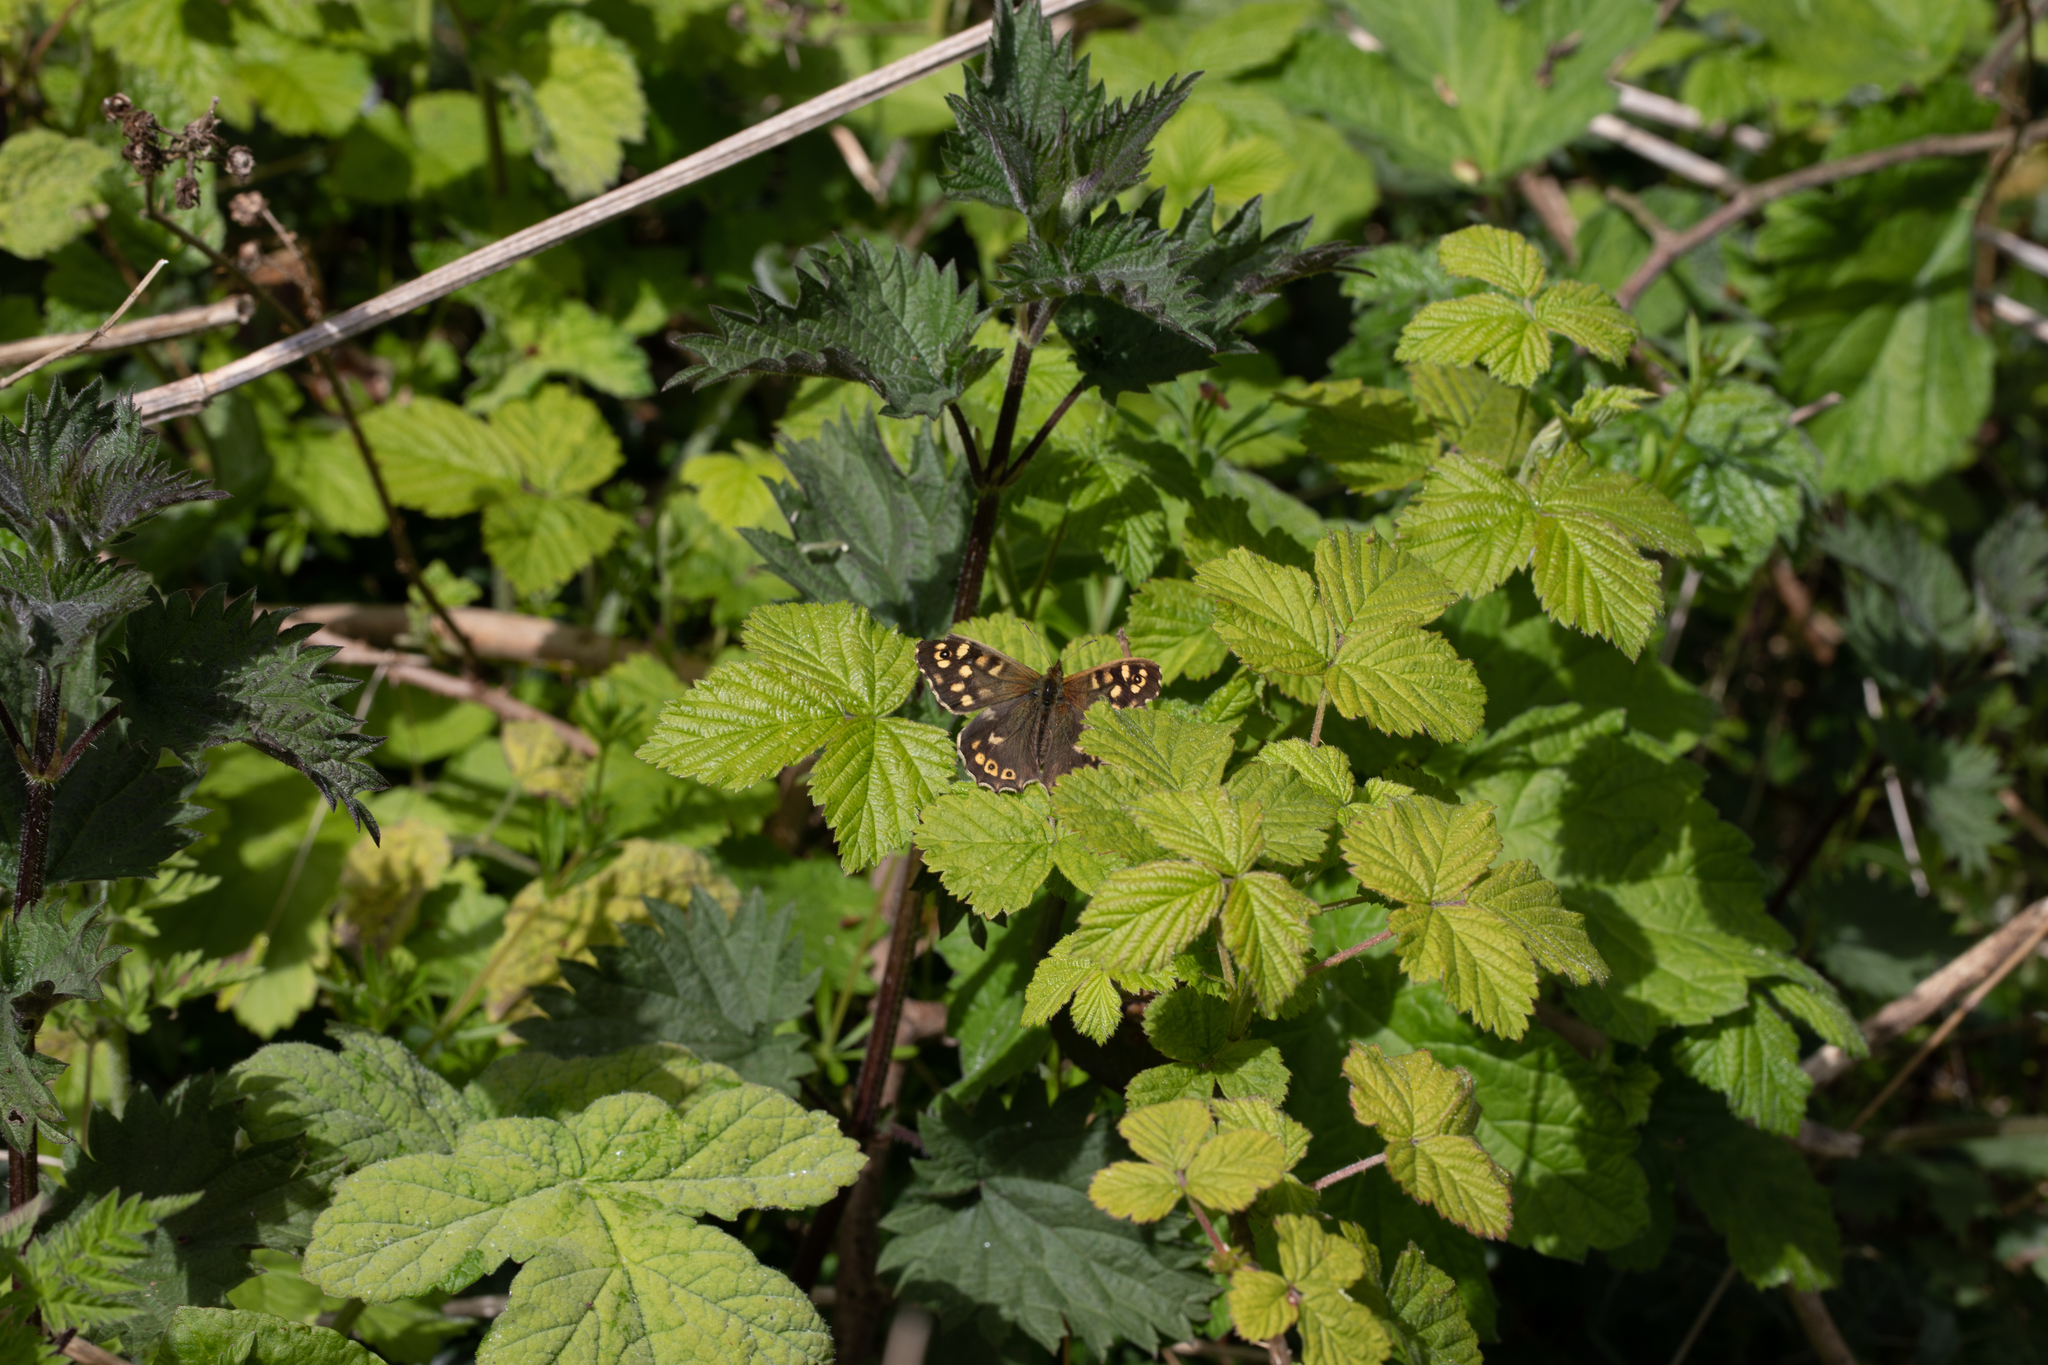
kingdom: Animalia
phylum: Arthropoda
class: Insecta
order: Lepidoptera
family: Nymphalidae
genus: Pararge
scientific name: Pararge aegeria
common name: Speckled wood
